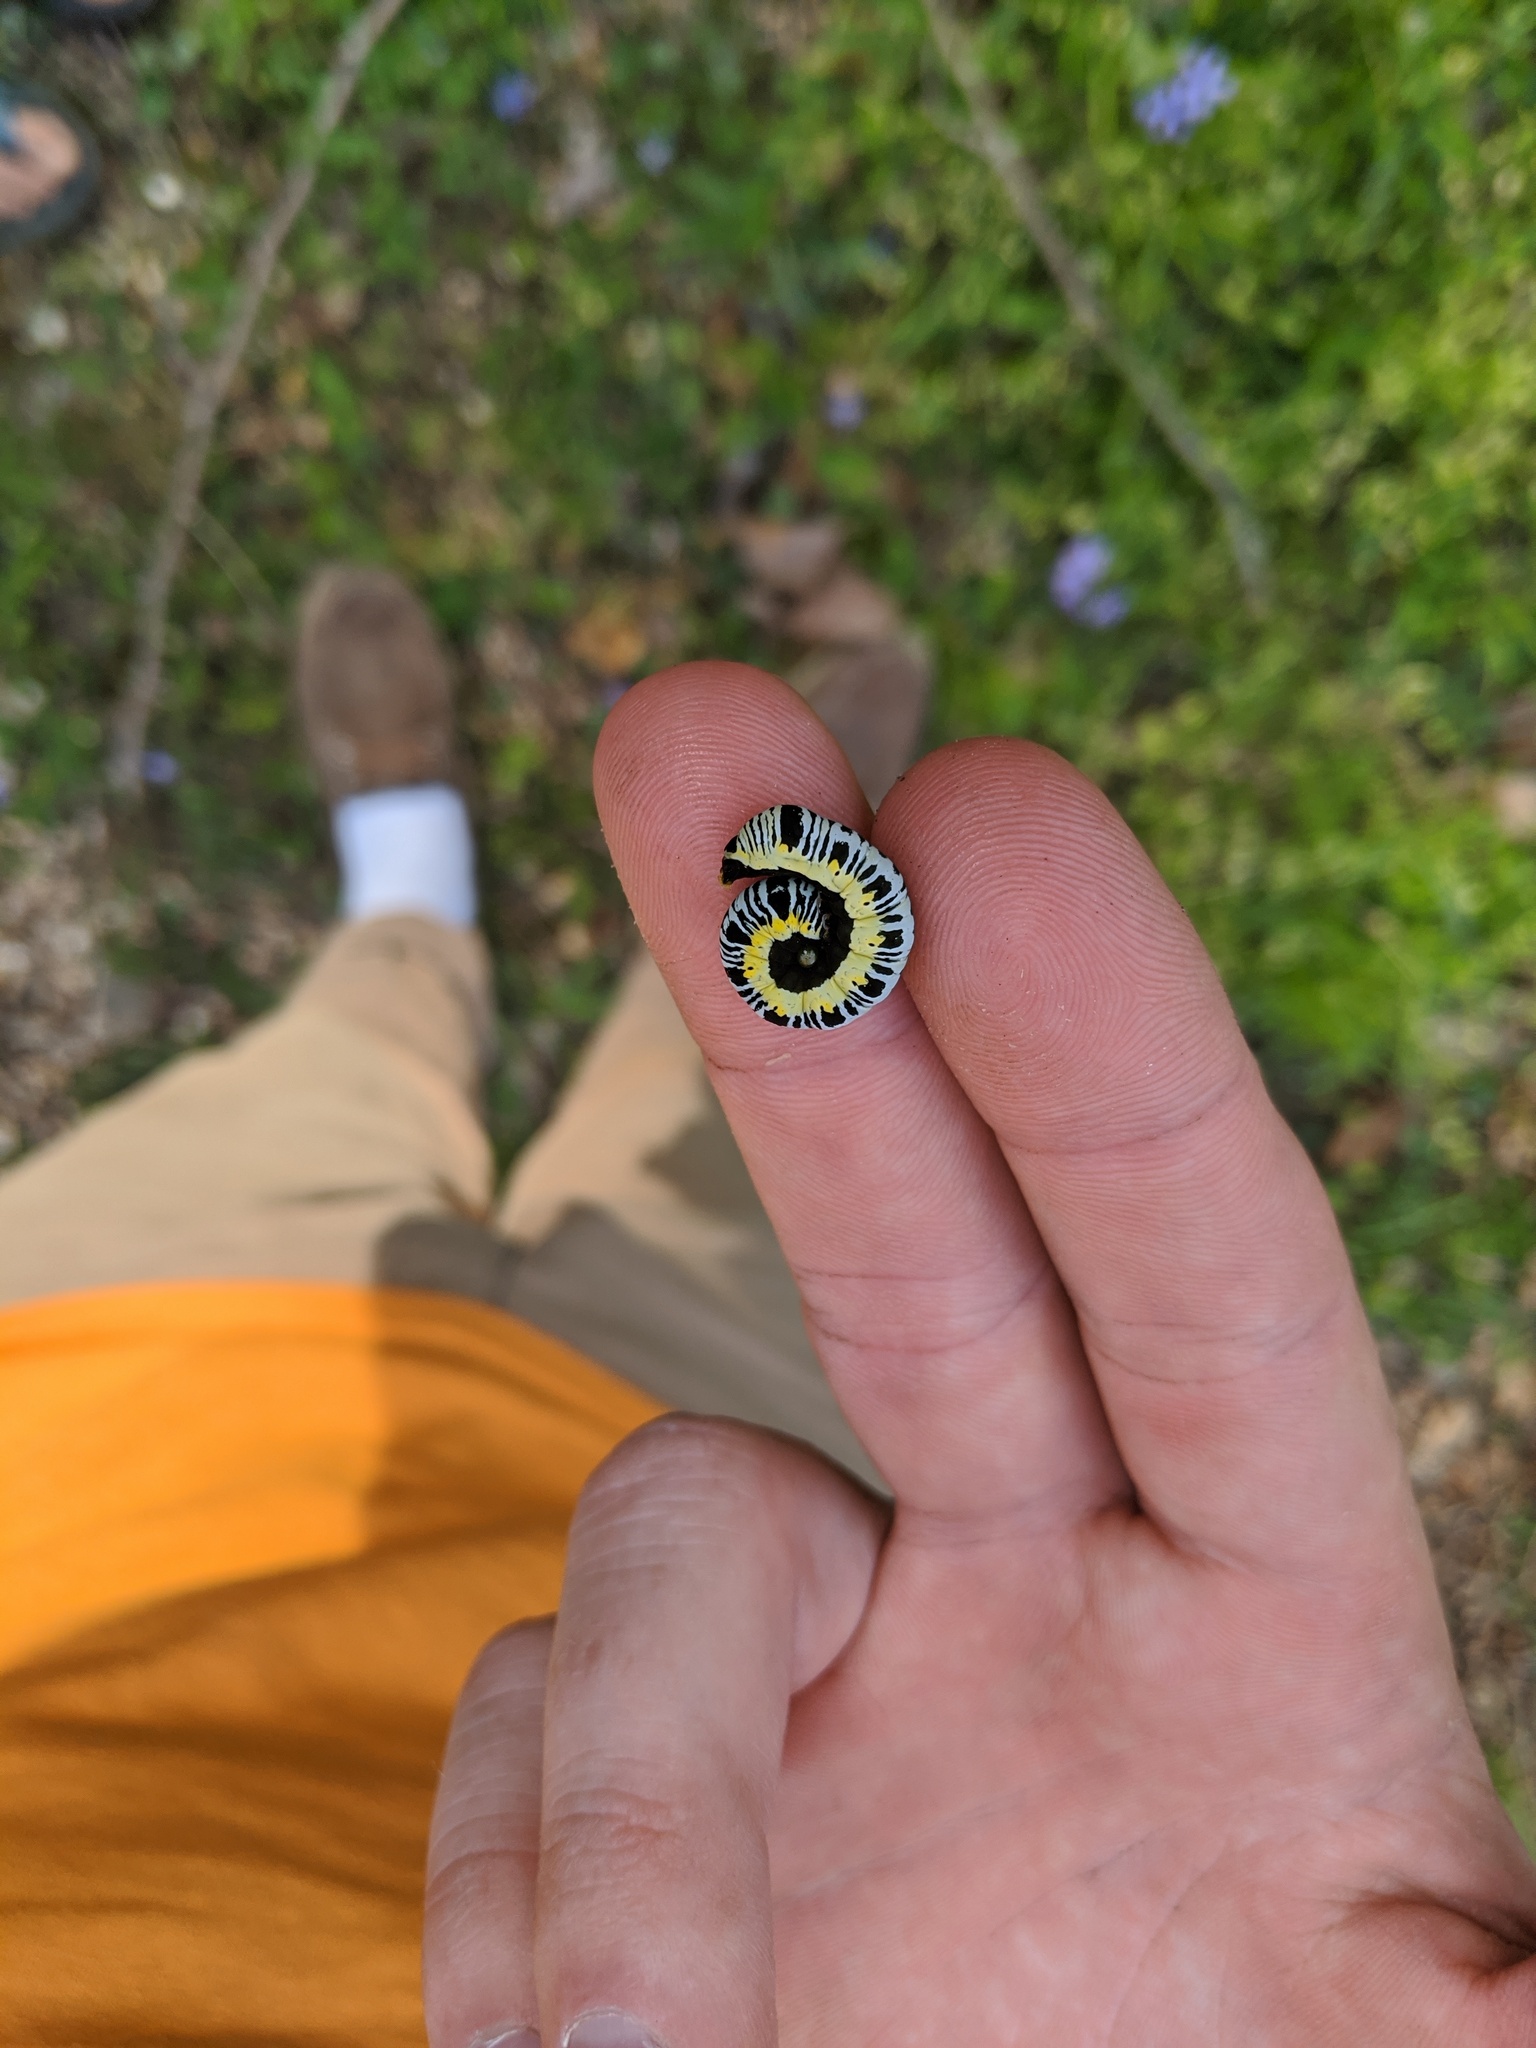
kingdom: Animalia
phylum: Arthropoda
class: Insecta
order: Lepidoptera
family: Erebidae
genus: Calyptra
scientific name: Calyptra canadensis
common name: Canadian owlet
